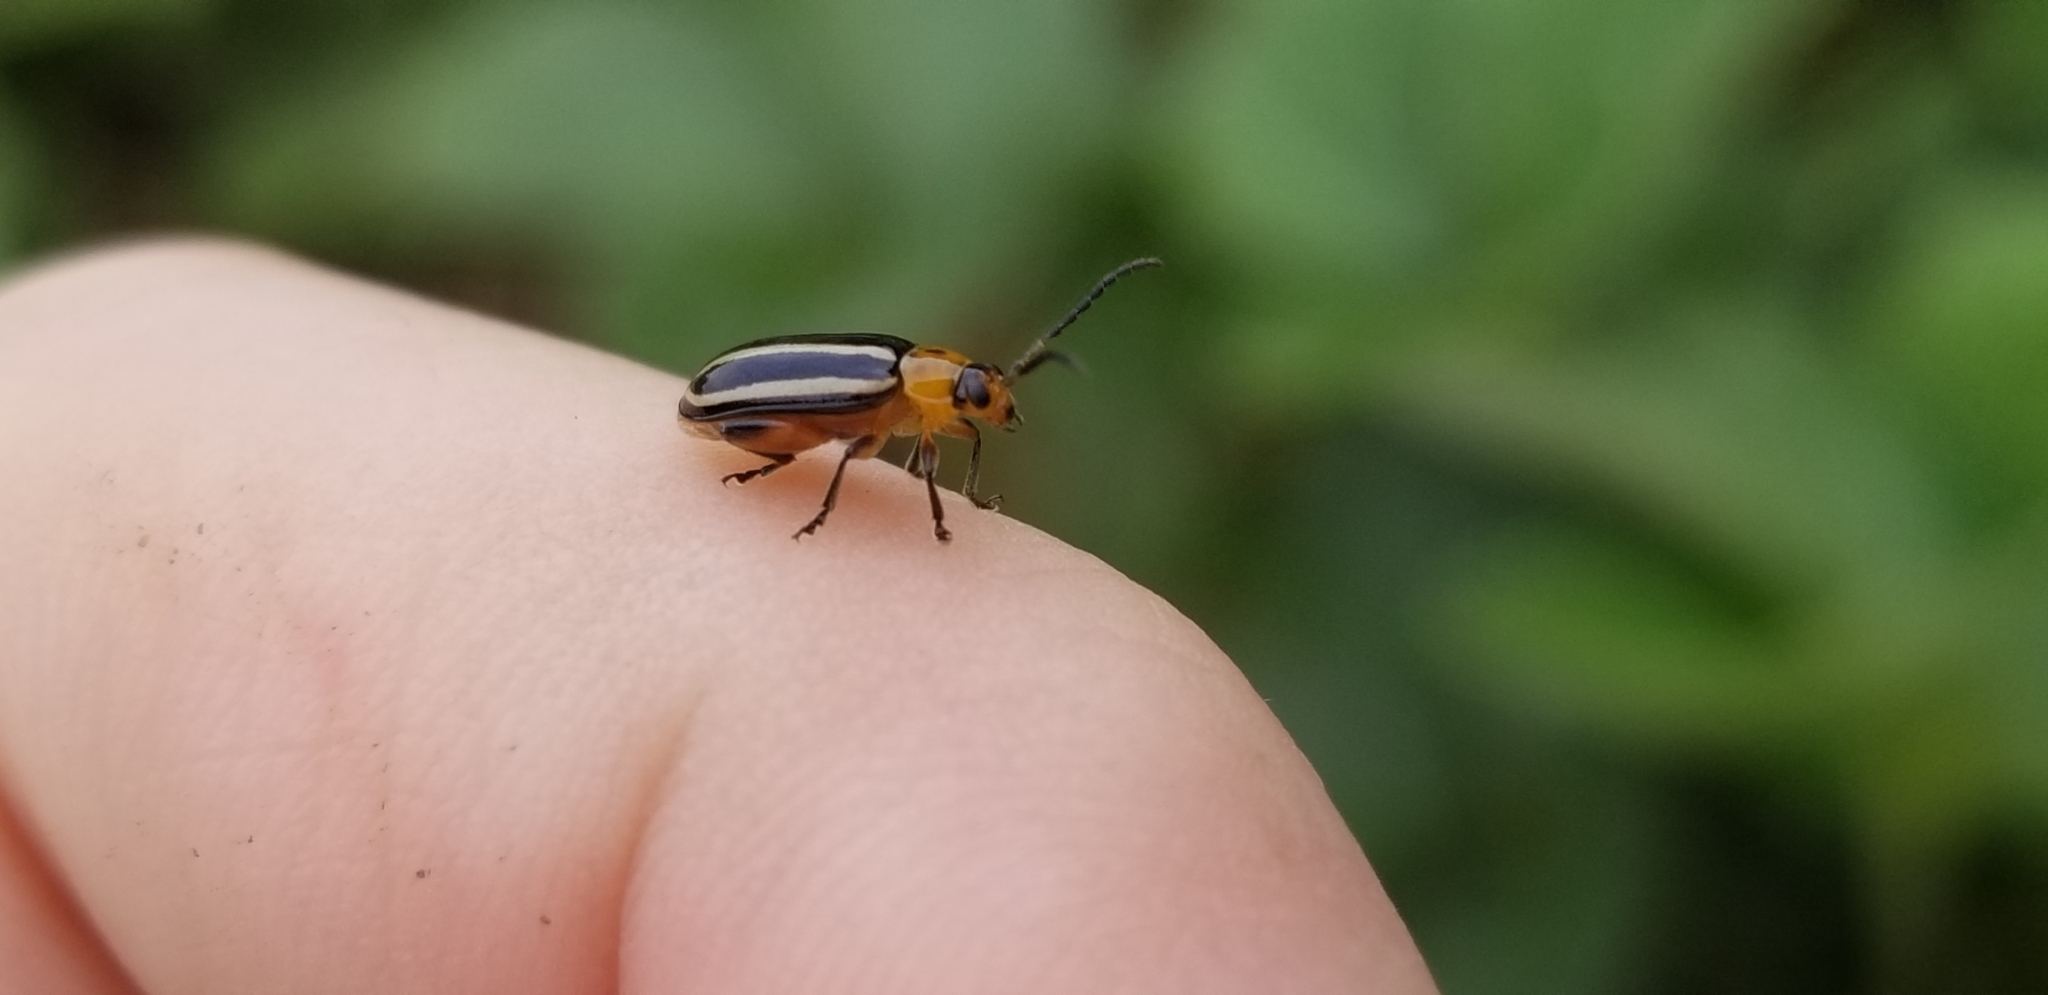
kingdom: Animalia
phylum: Arthropoda
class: Insecta
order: Coleoptera
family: Chrysomelidae
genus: Disonycha
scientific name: Disonycha glabrata
